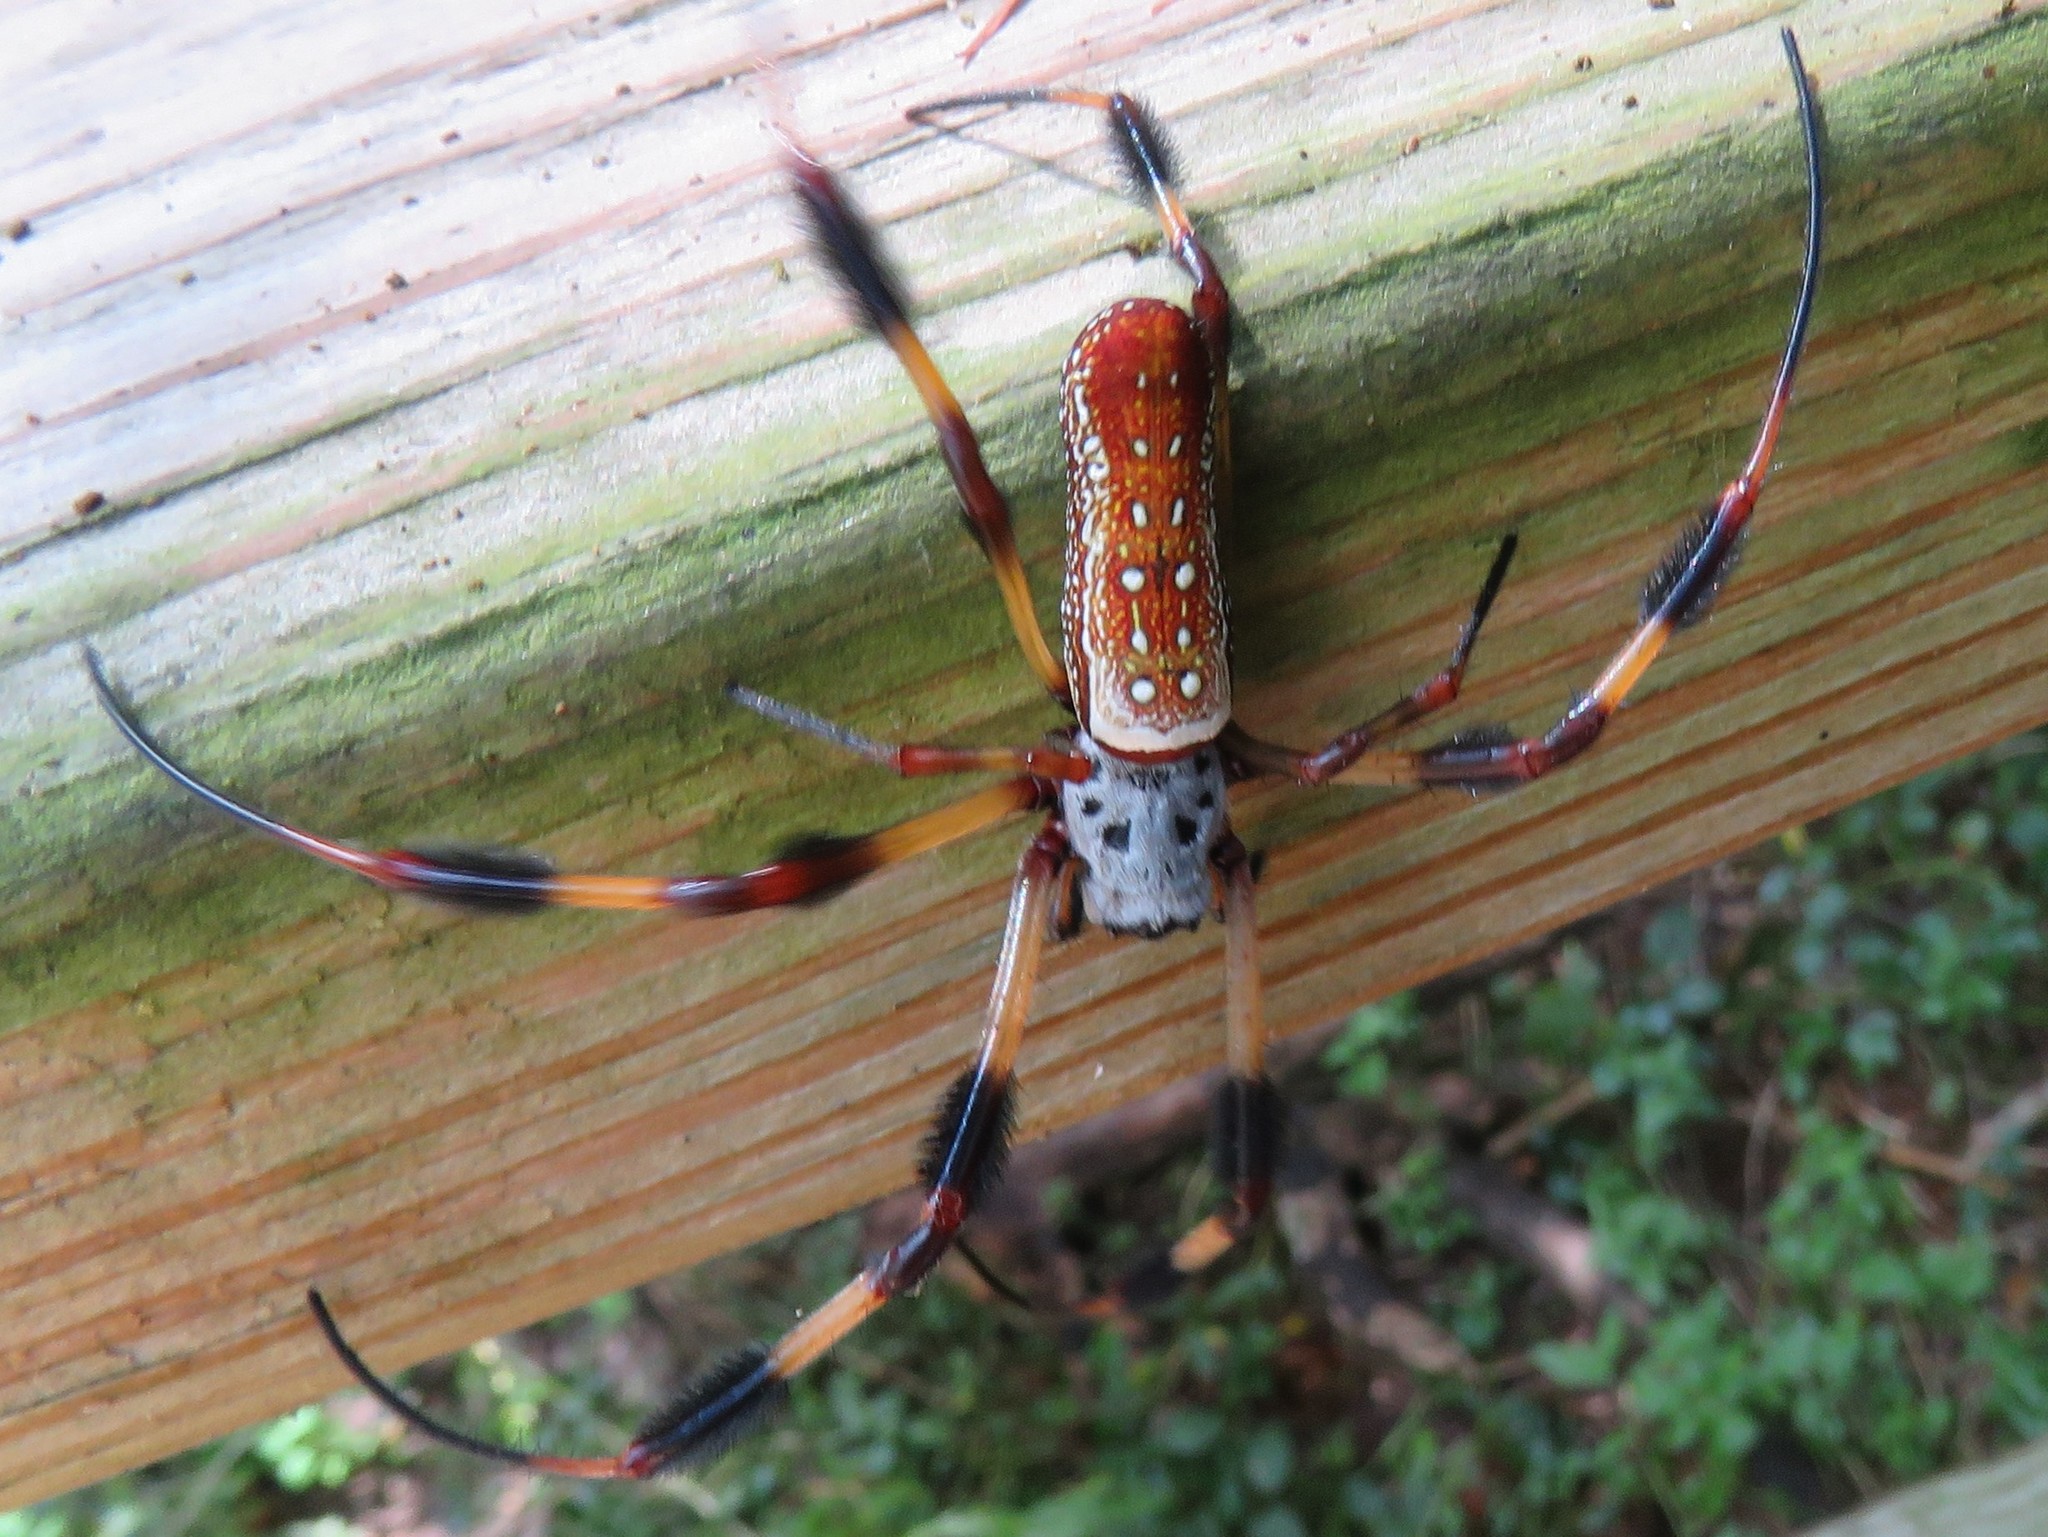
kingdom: Animalia
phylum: Arthropoda
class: Arachnida
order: Araneae
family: Araneidae
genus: Trichonephila
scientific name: Trichonephila clavipes
